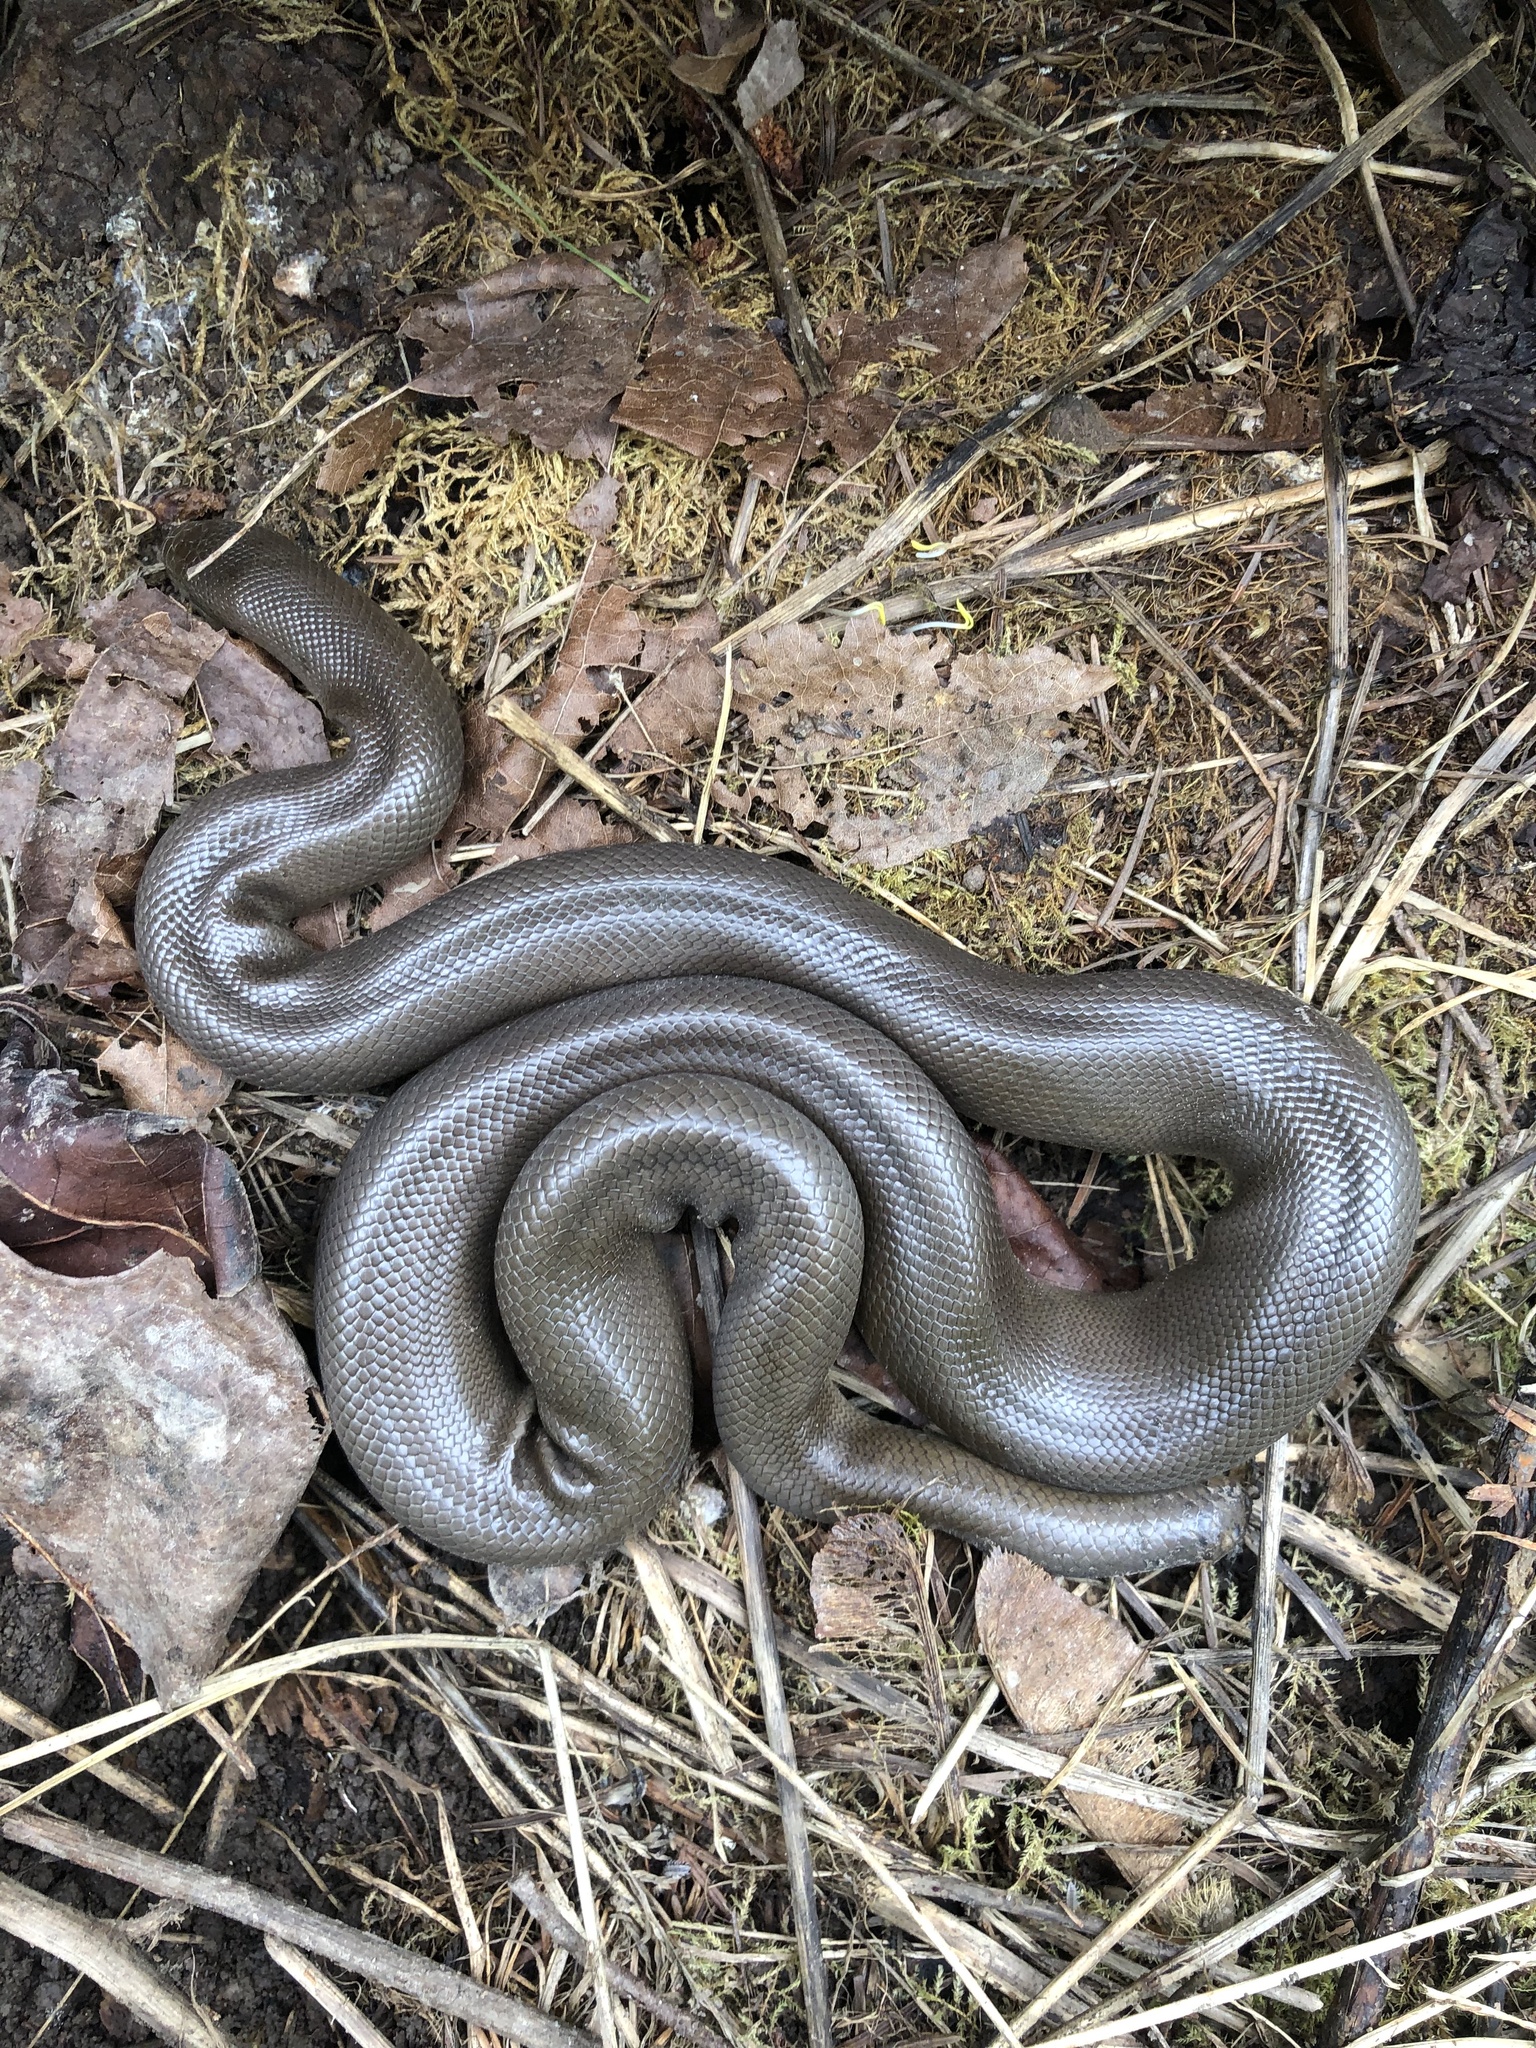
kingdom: Animalia
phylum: Chordata
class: Squamata
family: Boidae
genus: Charina
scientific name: Charina bottae
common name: Northern rubber boa
